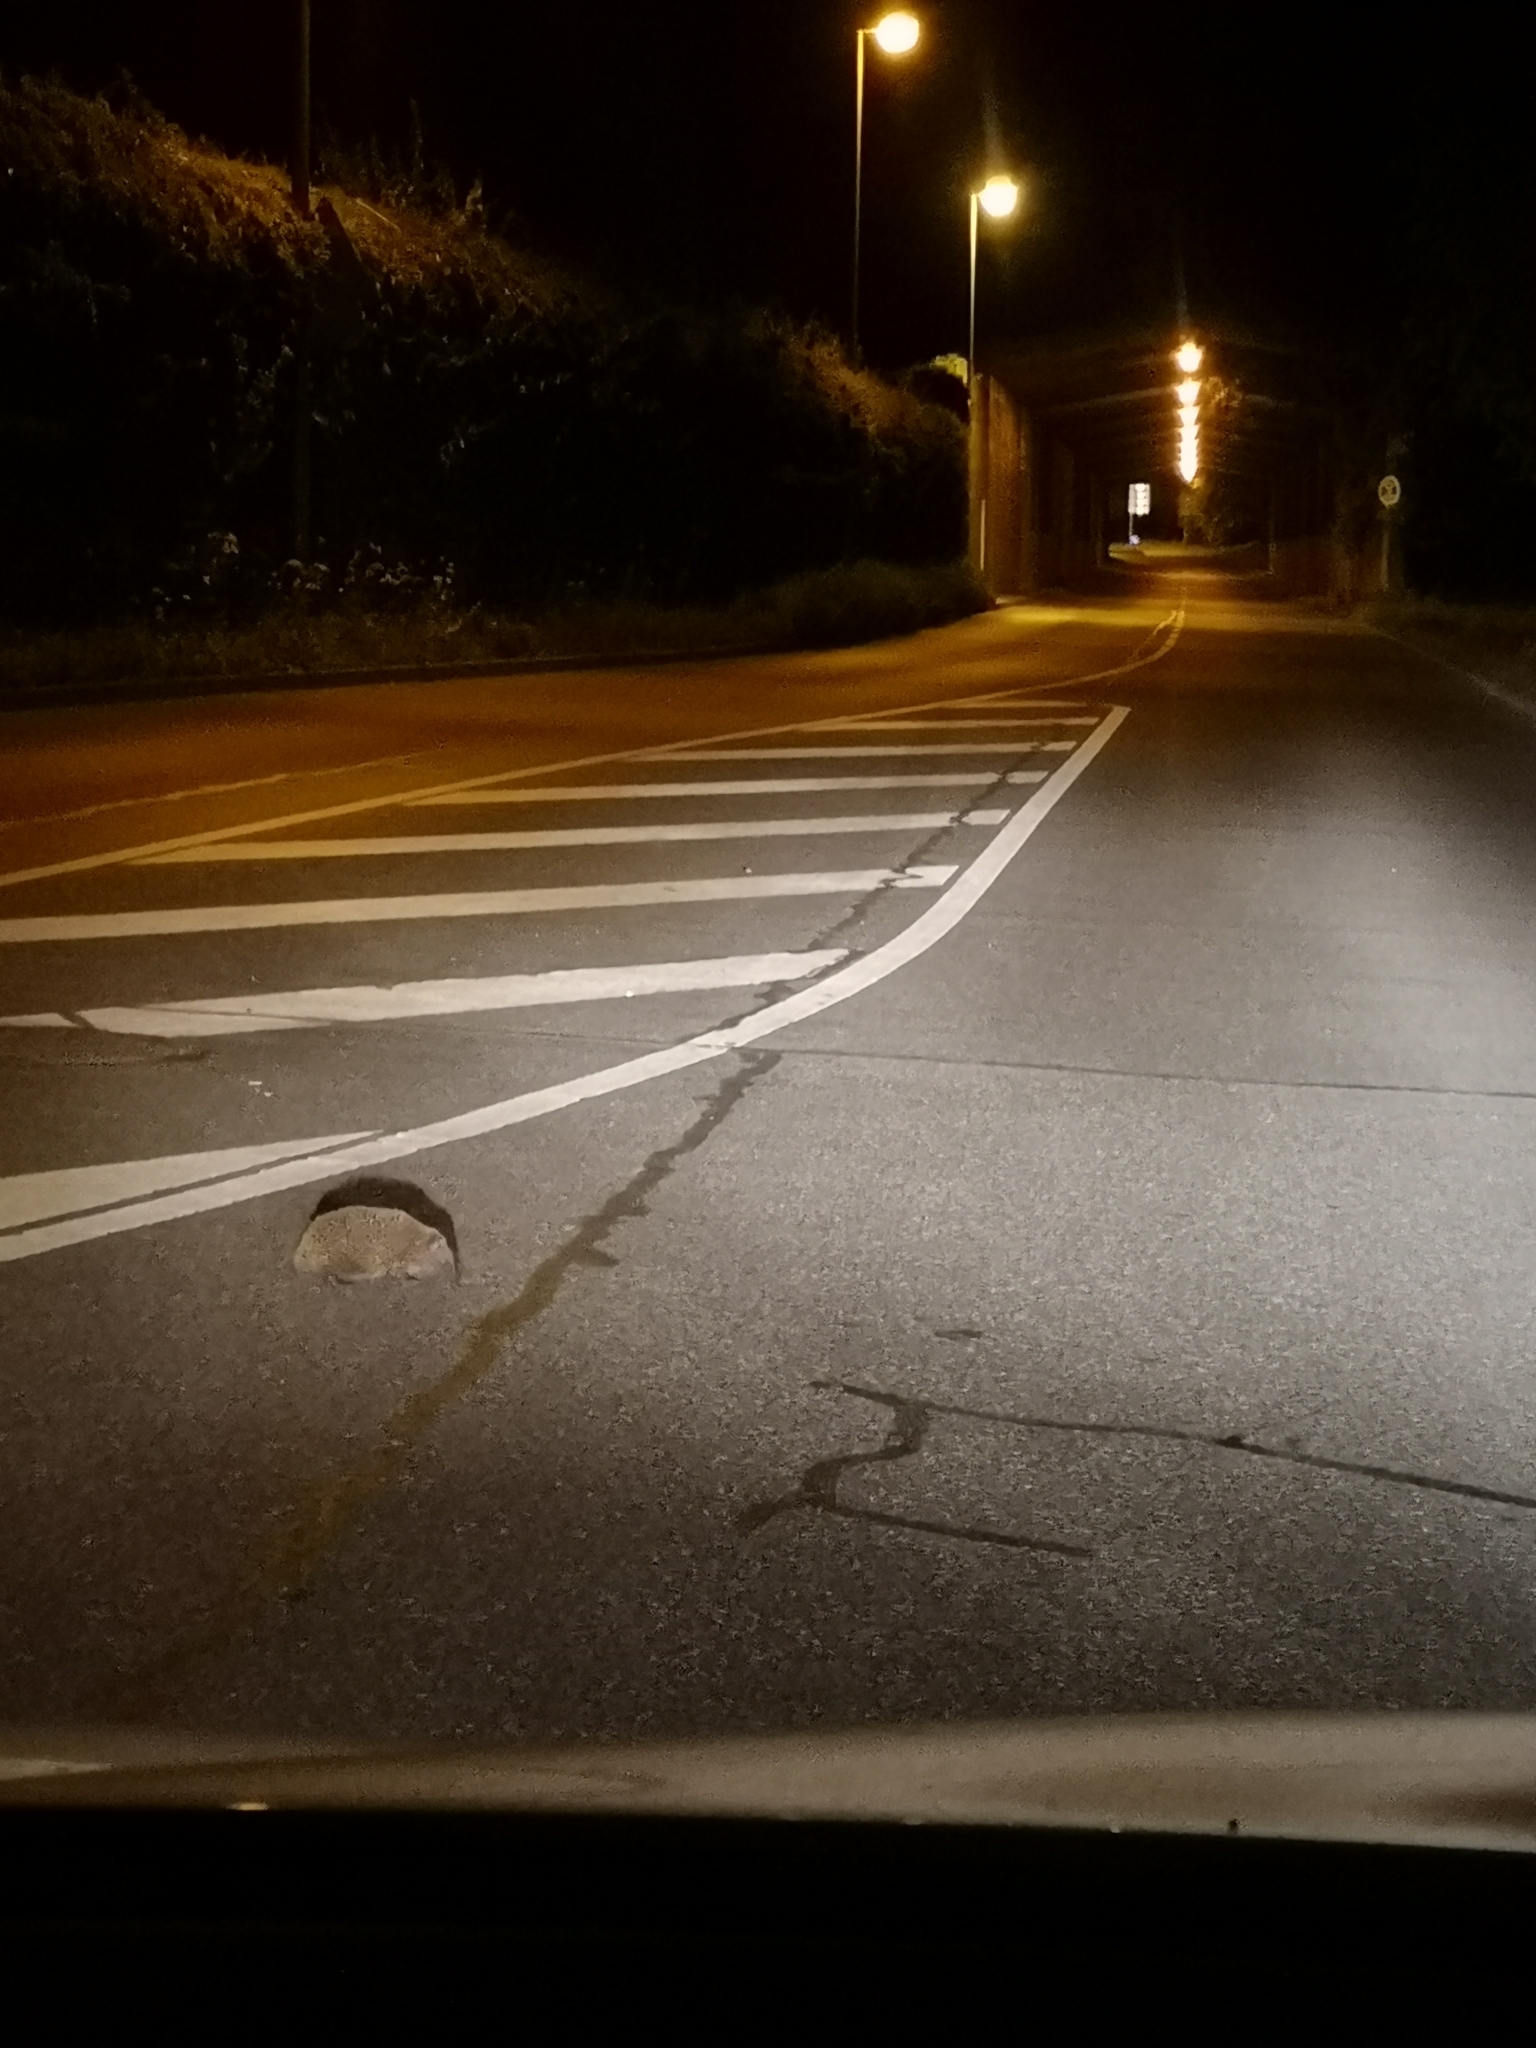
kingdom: Animalia
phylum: Chordata
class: Mammalia
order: Erinaceomorpha
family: Erinaceidae
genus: Erinaceus
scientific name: Erinaceus europaeus
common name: West european hedgehog
